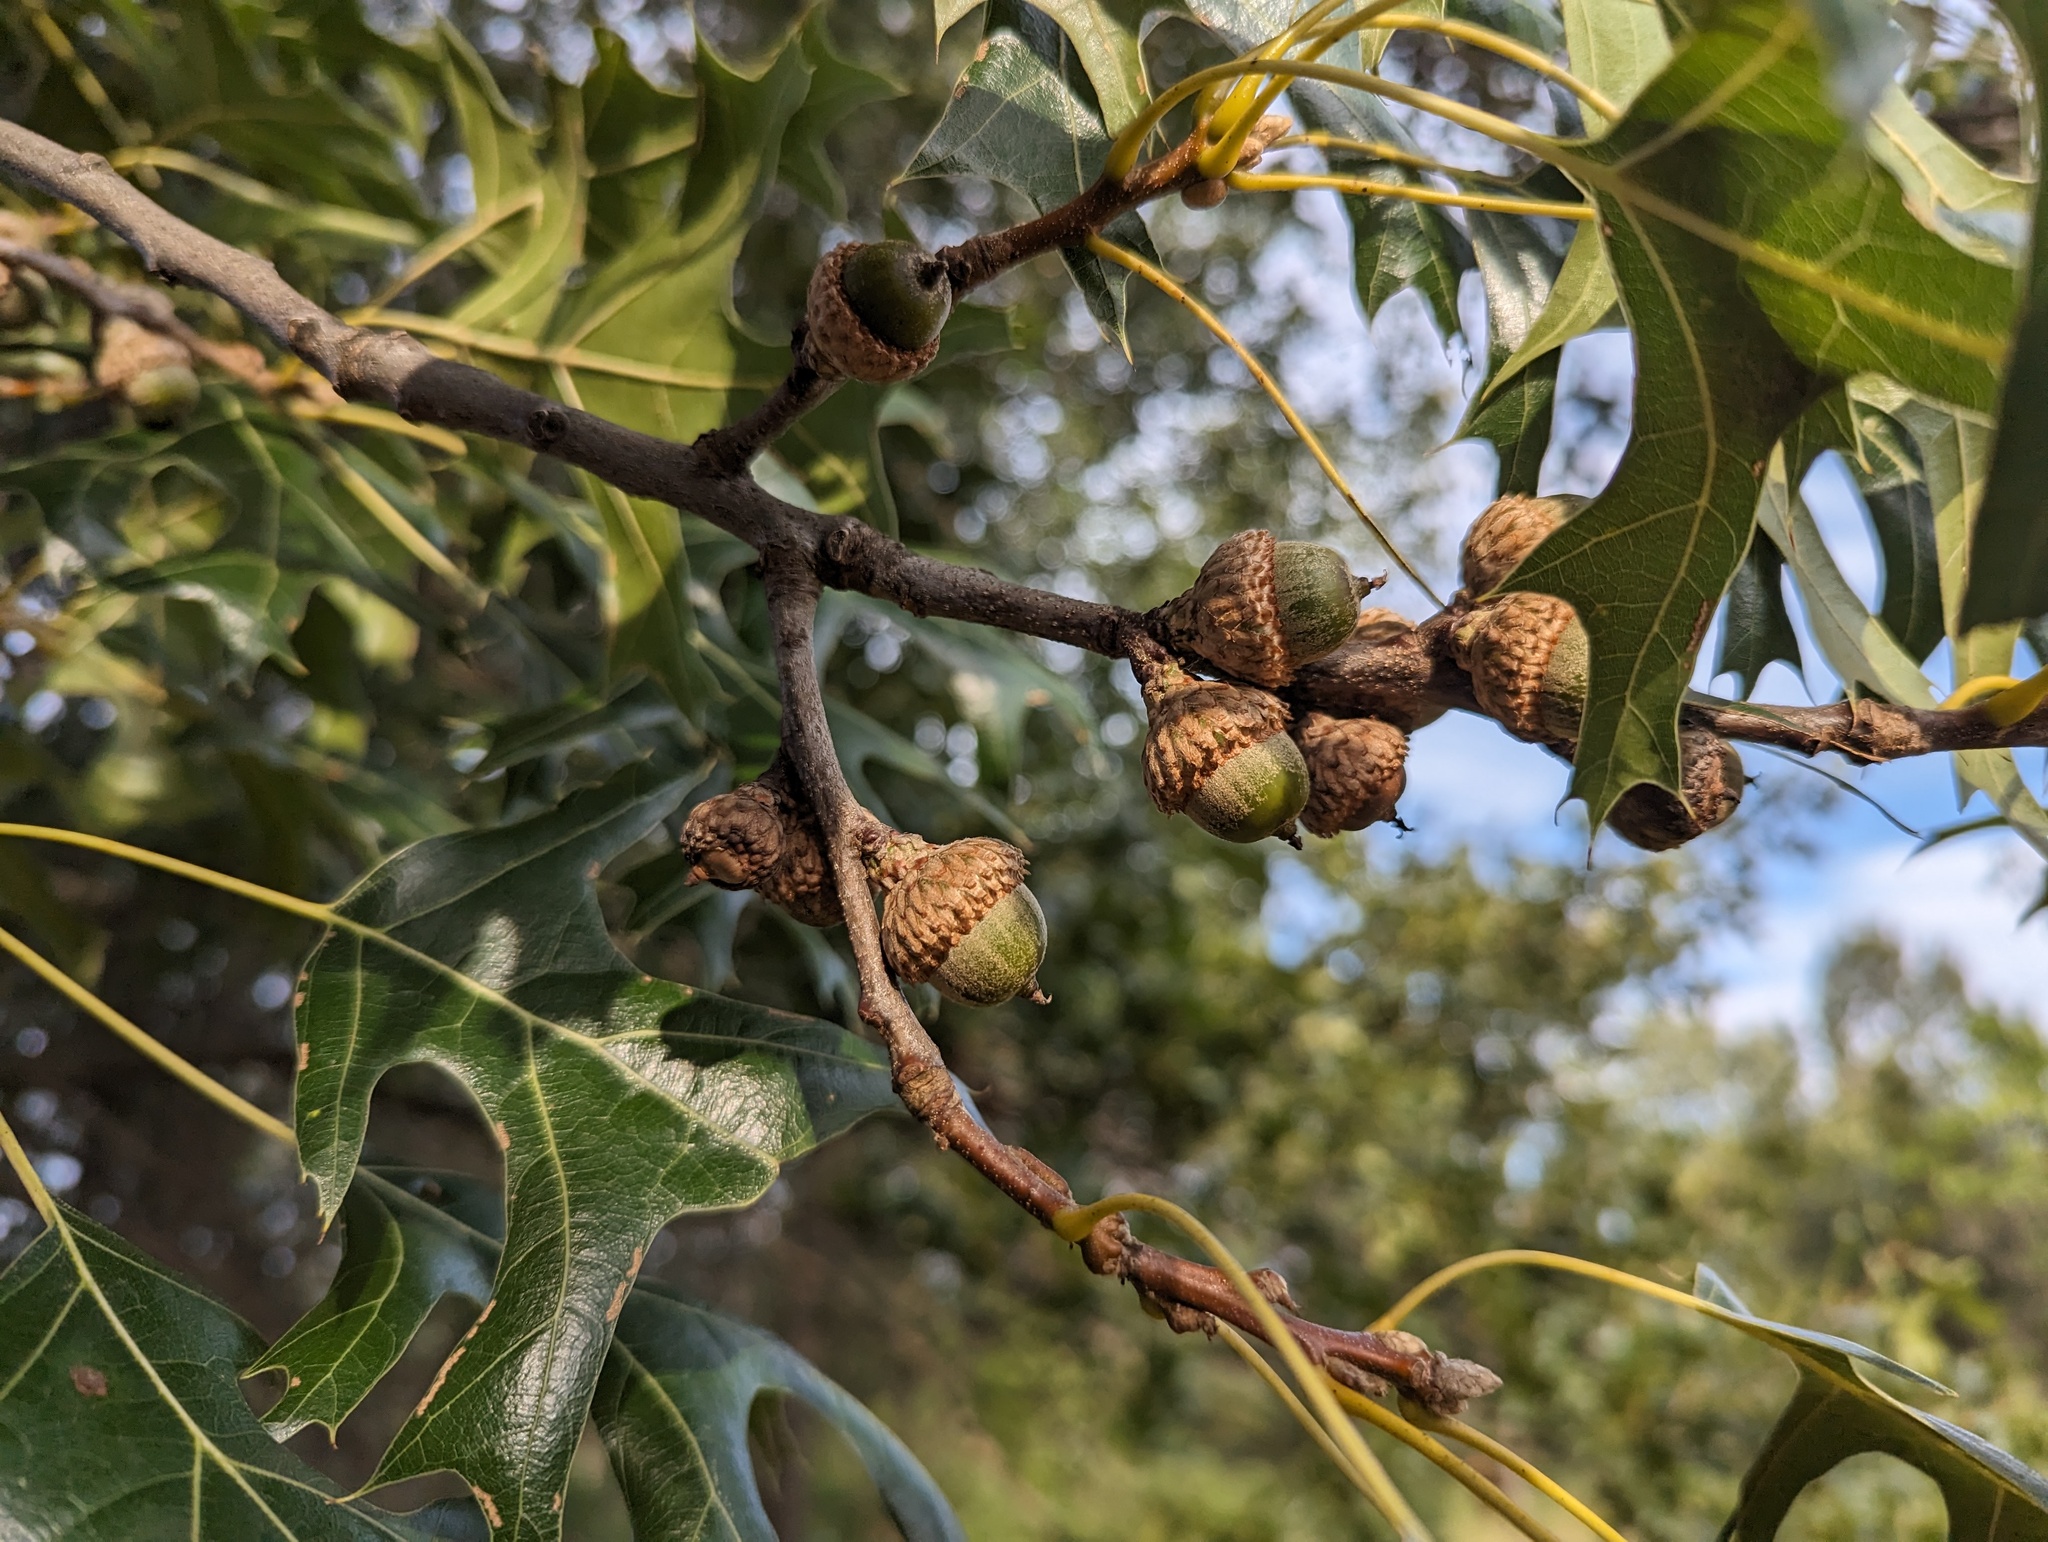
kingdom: Plantae
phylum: Tracheophyta
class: Magnoliopsida
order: Fagales
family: Fagaceae
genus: Quercus
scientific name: Quercus velutina
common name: Black oak
